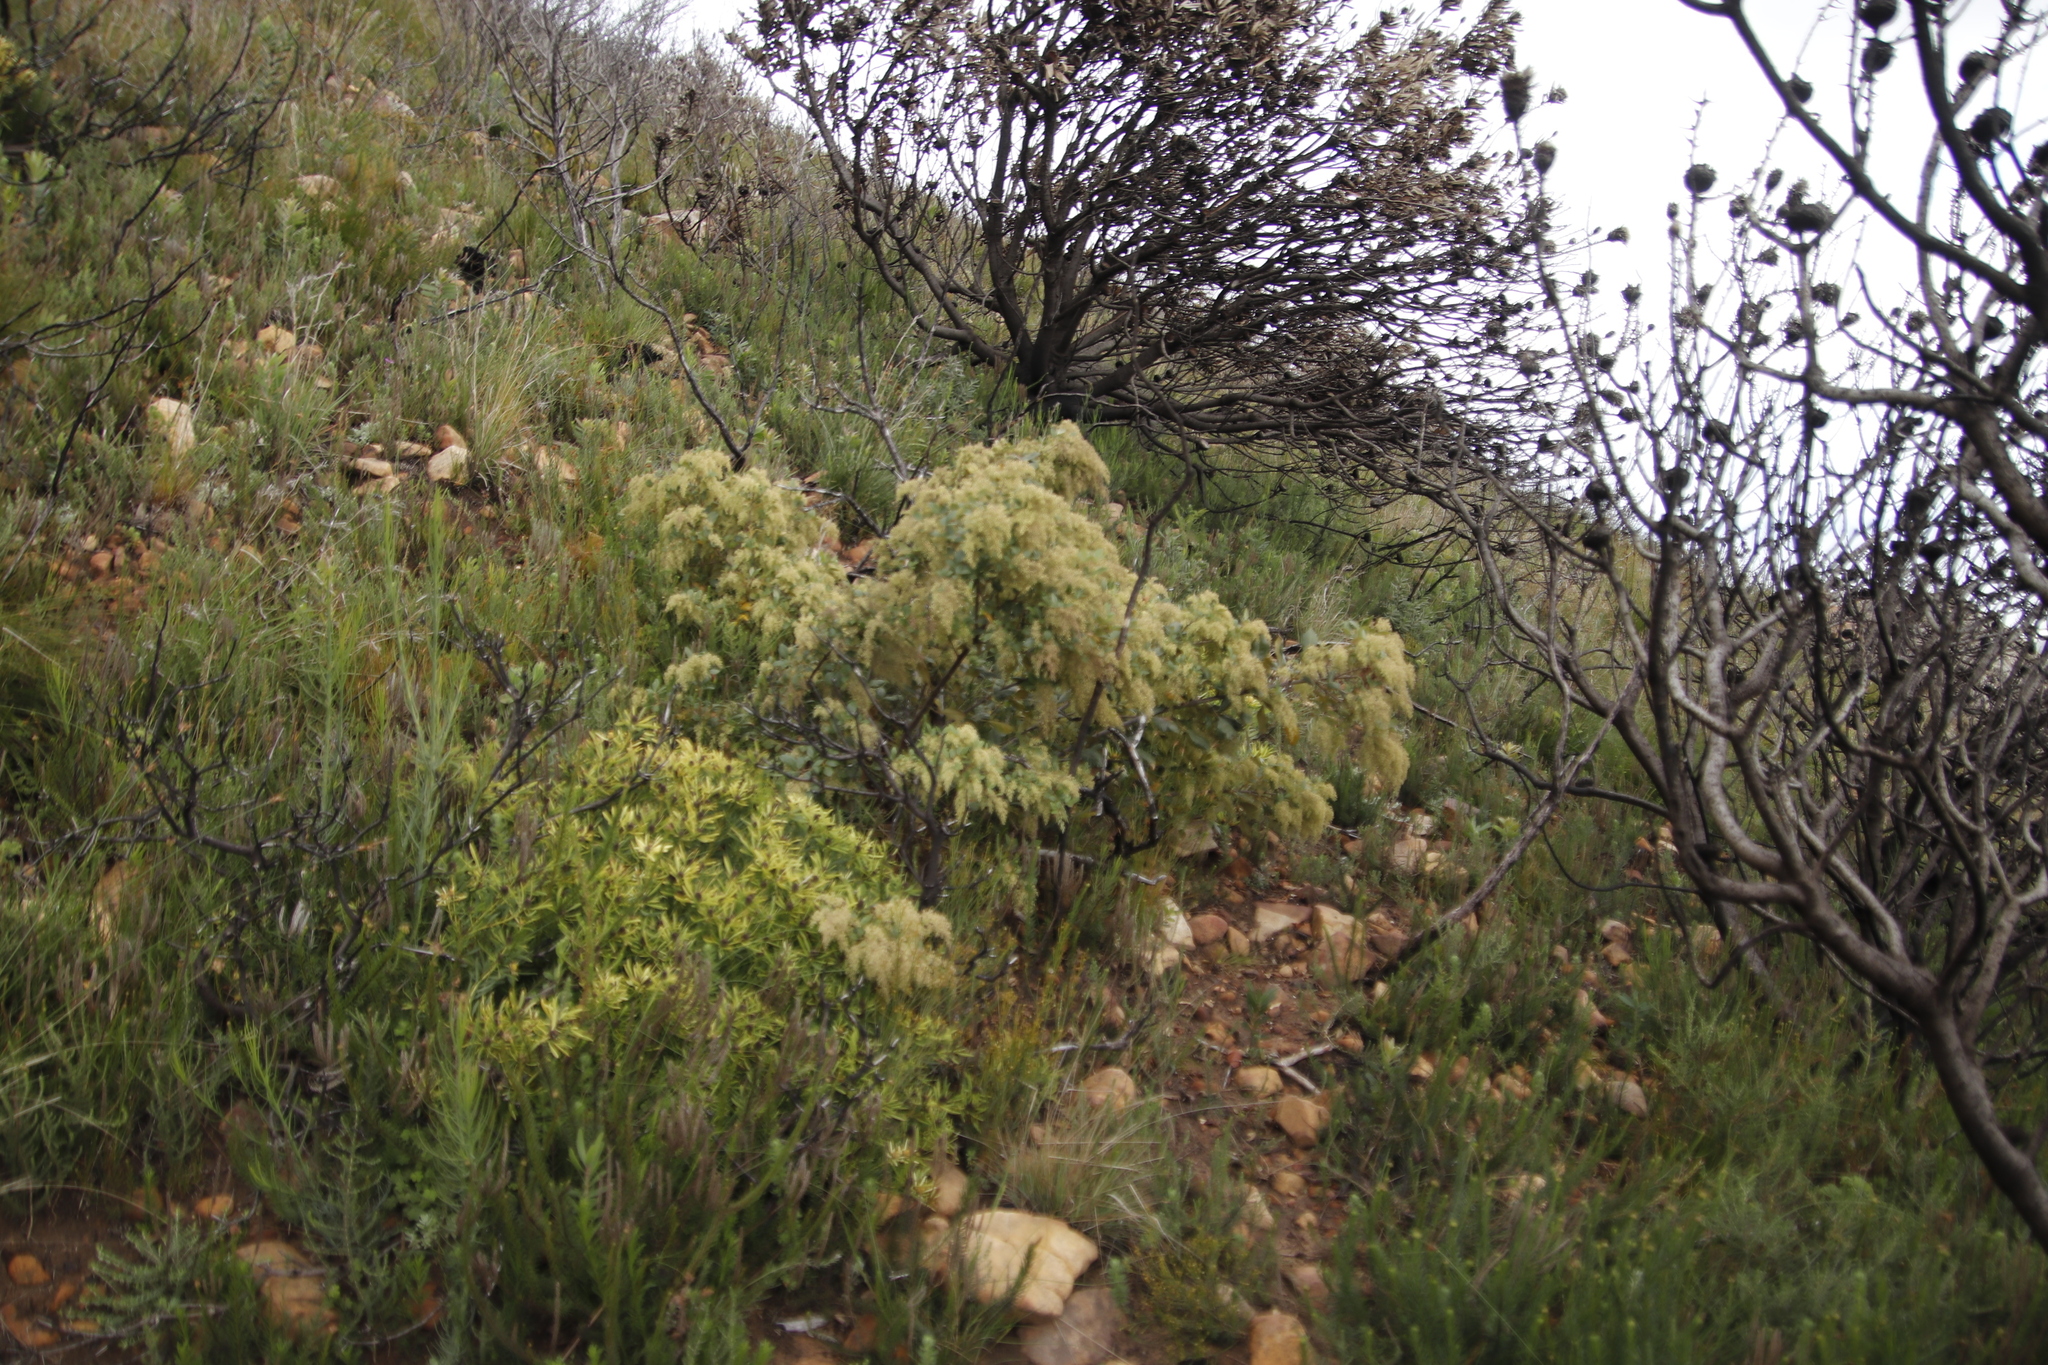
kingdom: Plantae
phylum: Tracheophyta
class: Magnoliopsida
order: Proteales
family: Proteaceae
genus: Leucadendron
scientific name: Leucadendron salignum
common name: Common sunshine conebush
